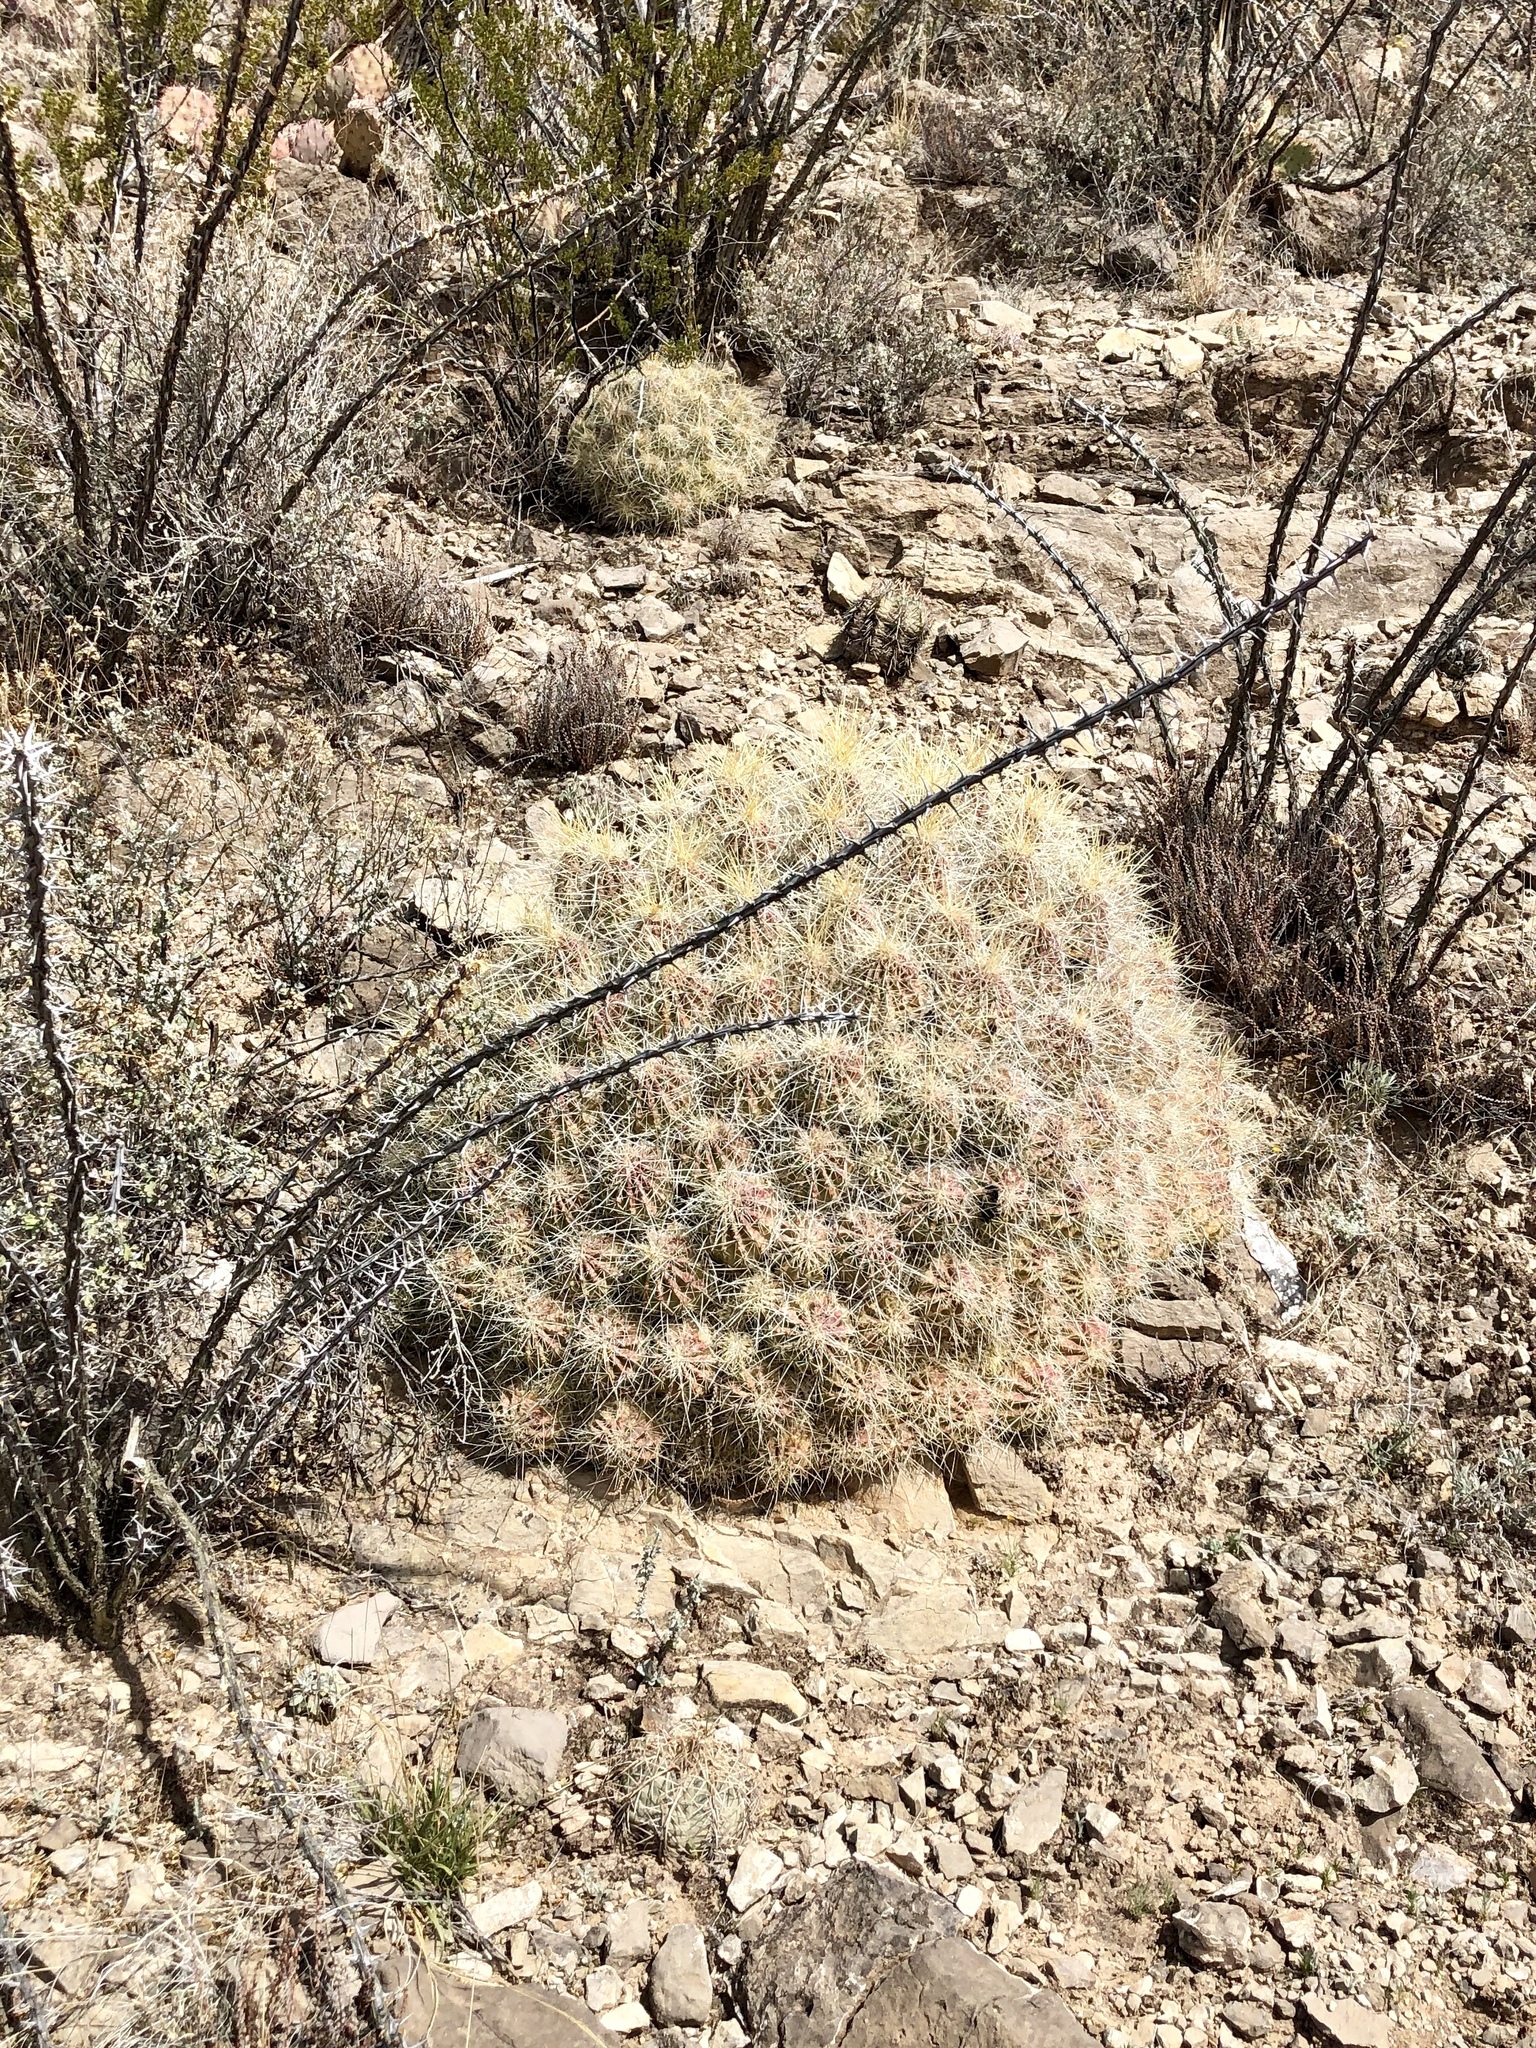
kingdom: Plantae
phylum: Tracheophyta
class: Magnoliopsida
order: Caryophyllales
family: Cactaceae
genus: Echinocereus
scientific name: Echinocereus stramineus
